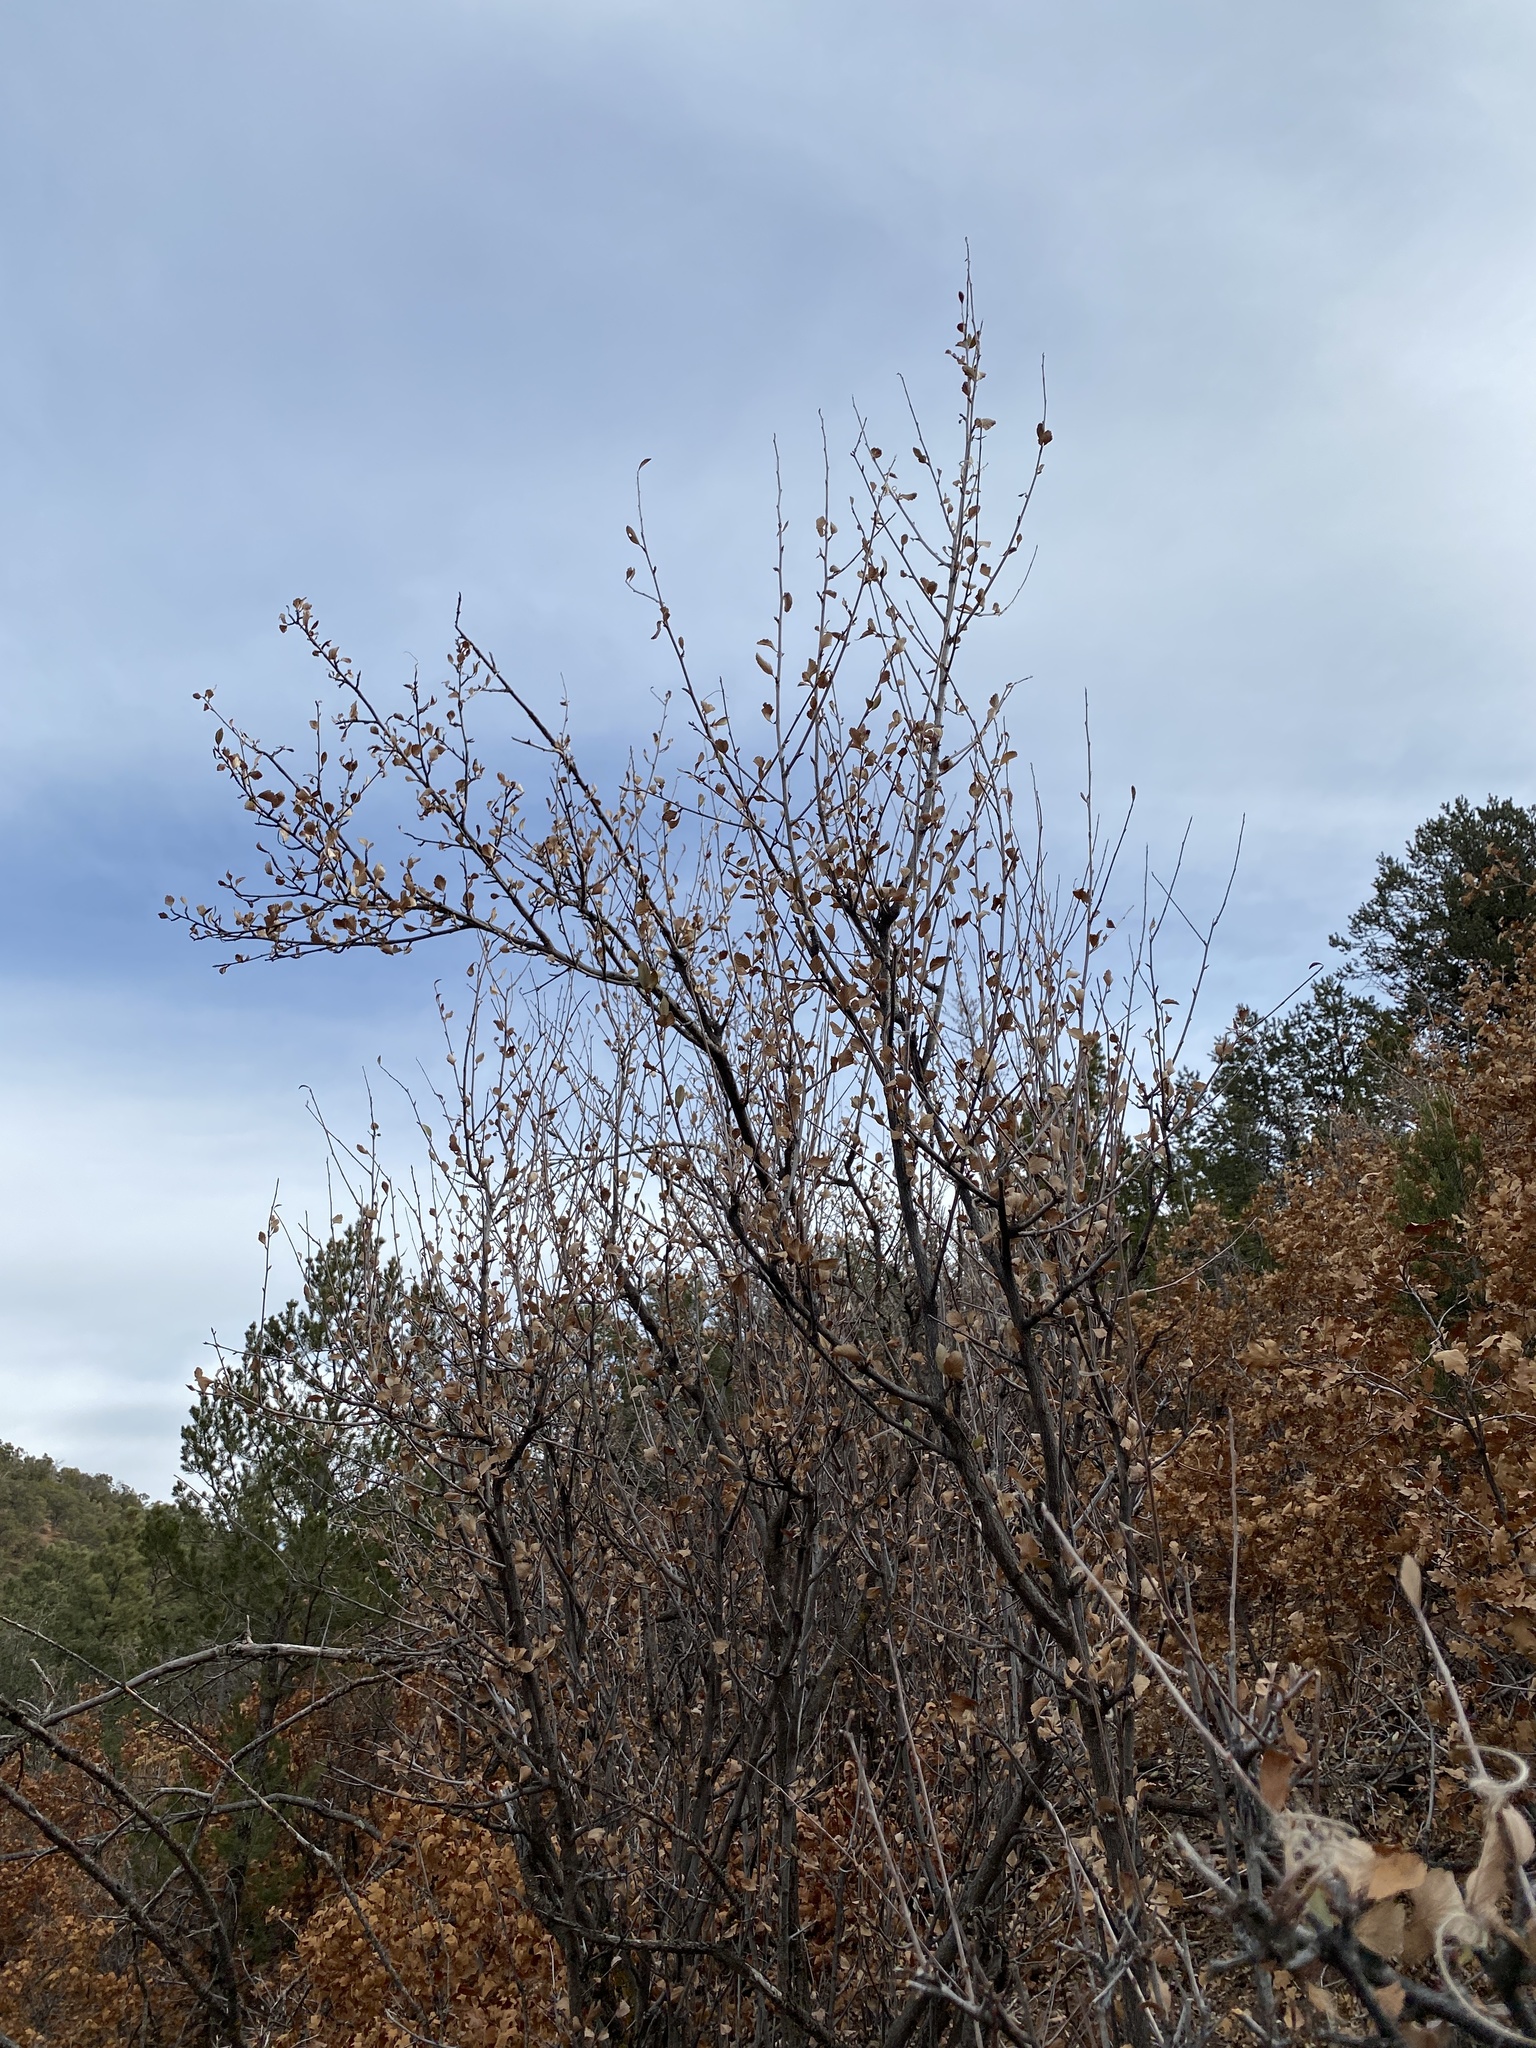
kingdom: Plantae
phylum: Tracheophyta
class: Magnoliopsida
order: Rosales
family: Rosaceae
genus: Cercocarpus
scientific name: Cercocarpus montanus
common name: Alder-leaf cercocarpus
